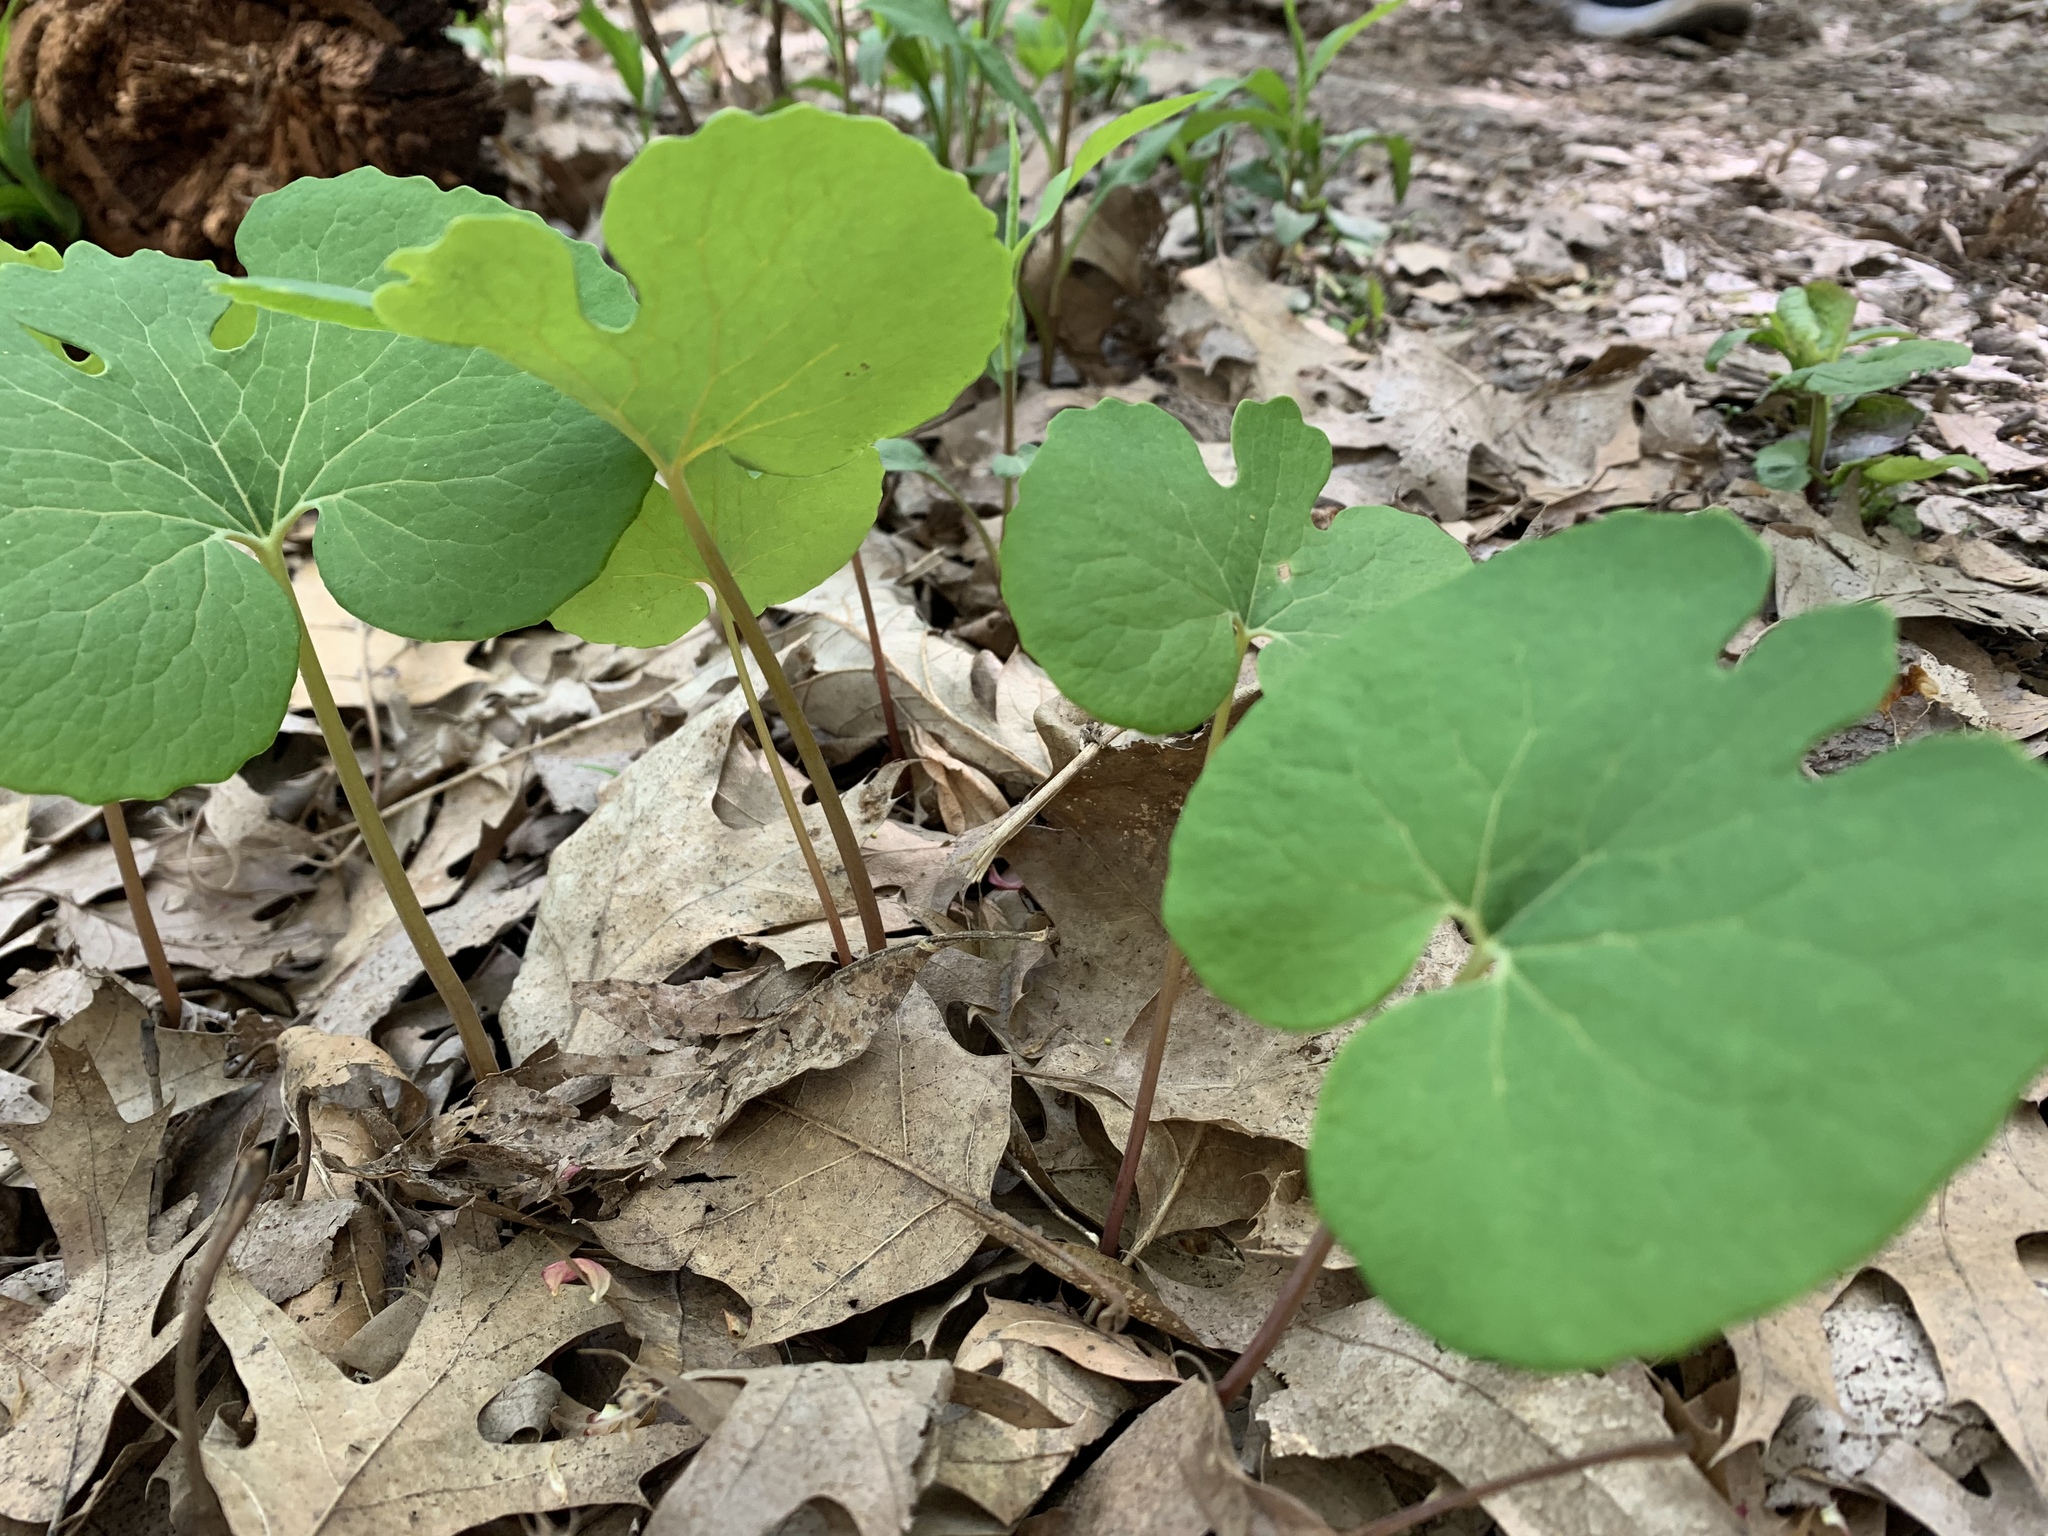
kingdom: Plantae
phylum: Tracheophyta
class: Magnoliopsida
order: Ranunculales
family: Papaveraceae
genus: Sanguinaria
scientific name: Sanguinaria canadensis
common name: Bloodroot
